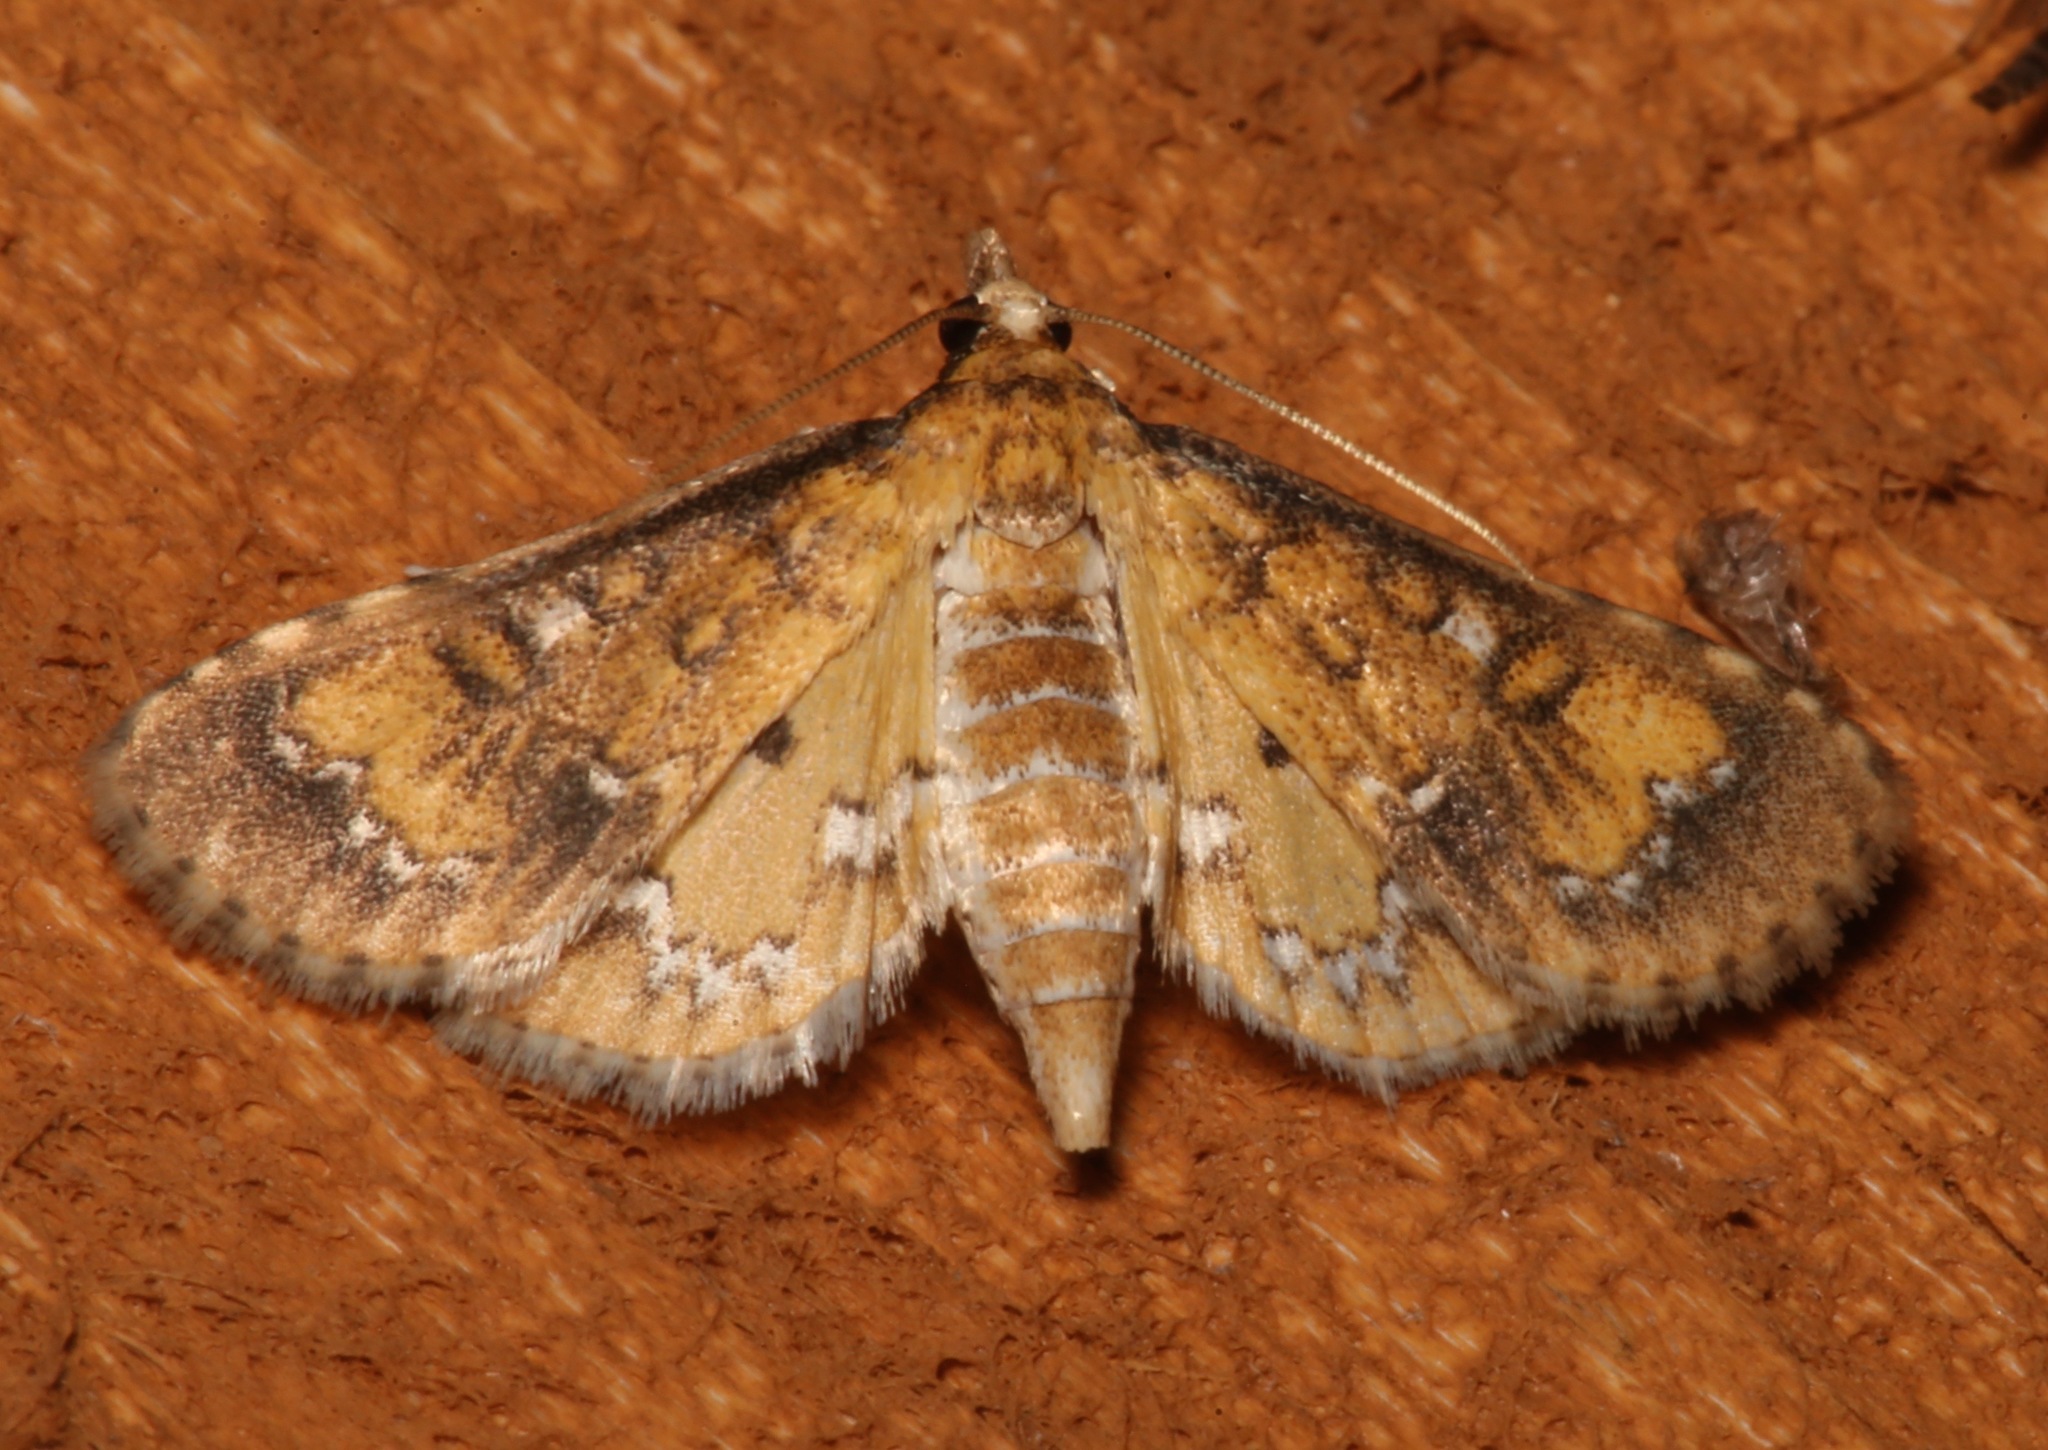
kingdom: Animalia
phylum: Arthropoda
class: Insecta
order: Lepidoptera
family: Crambidae
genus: Niphograpta
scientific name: Niphograpta albiguttalis
